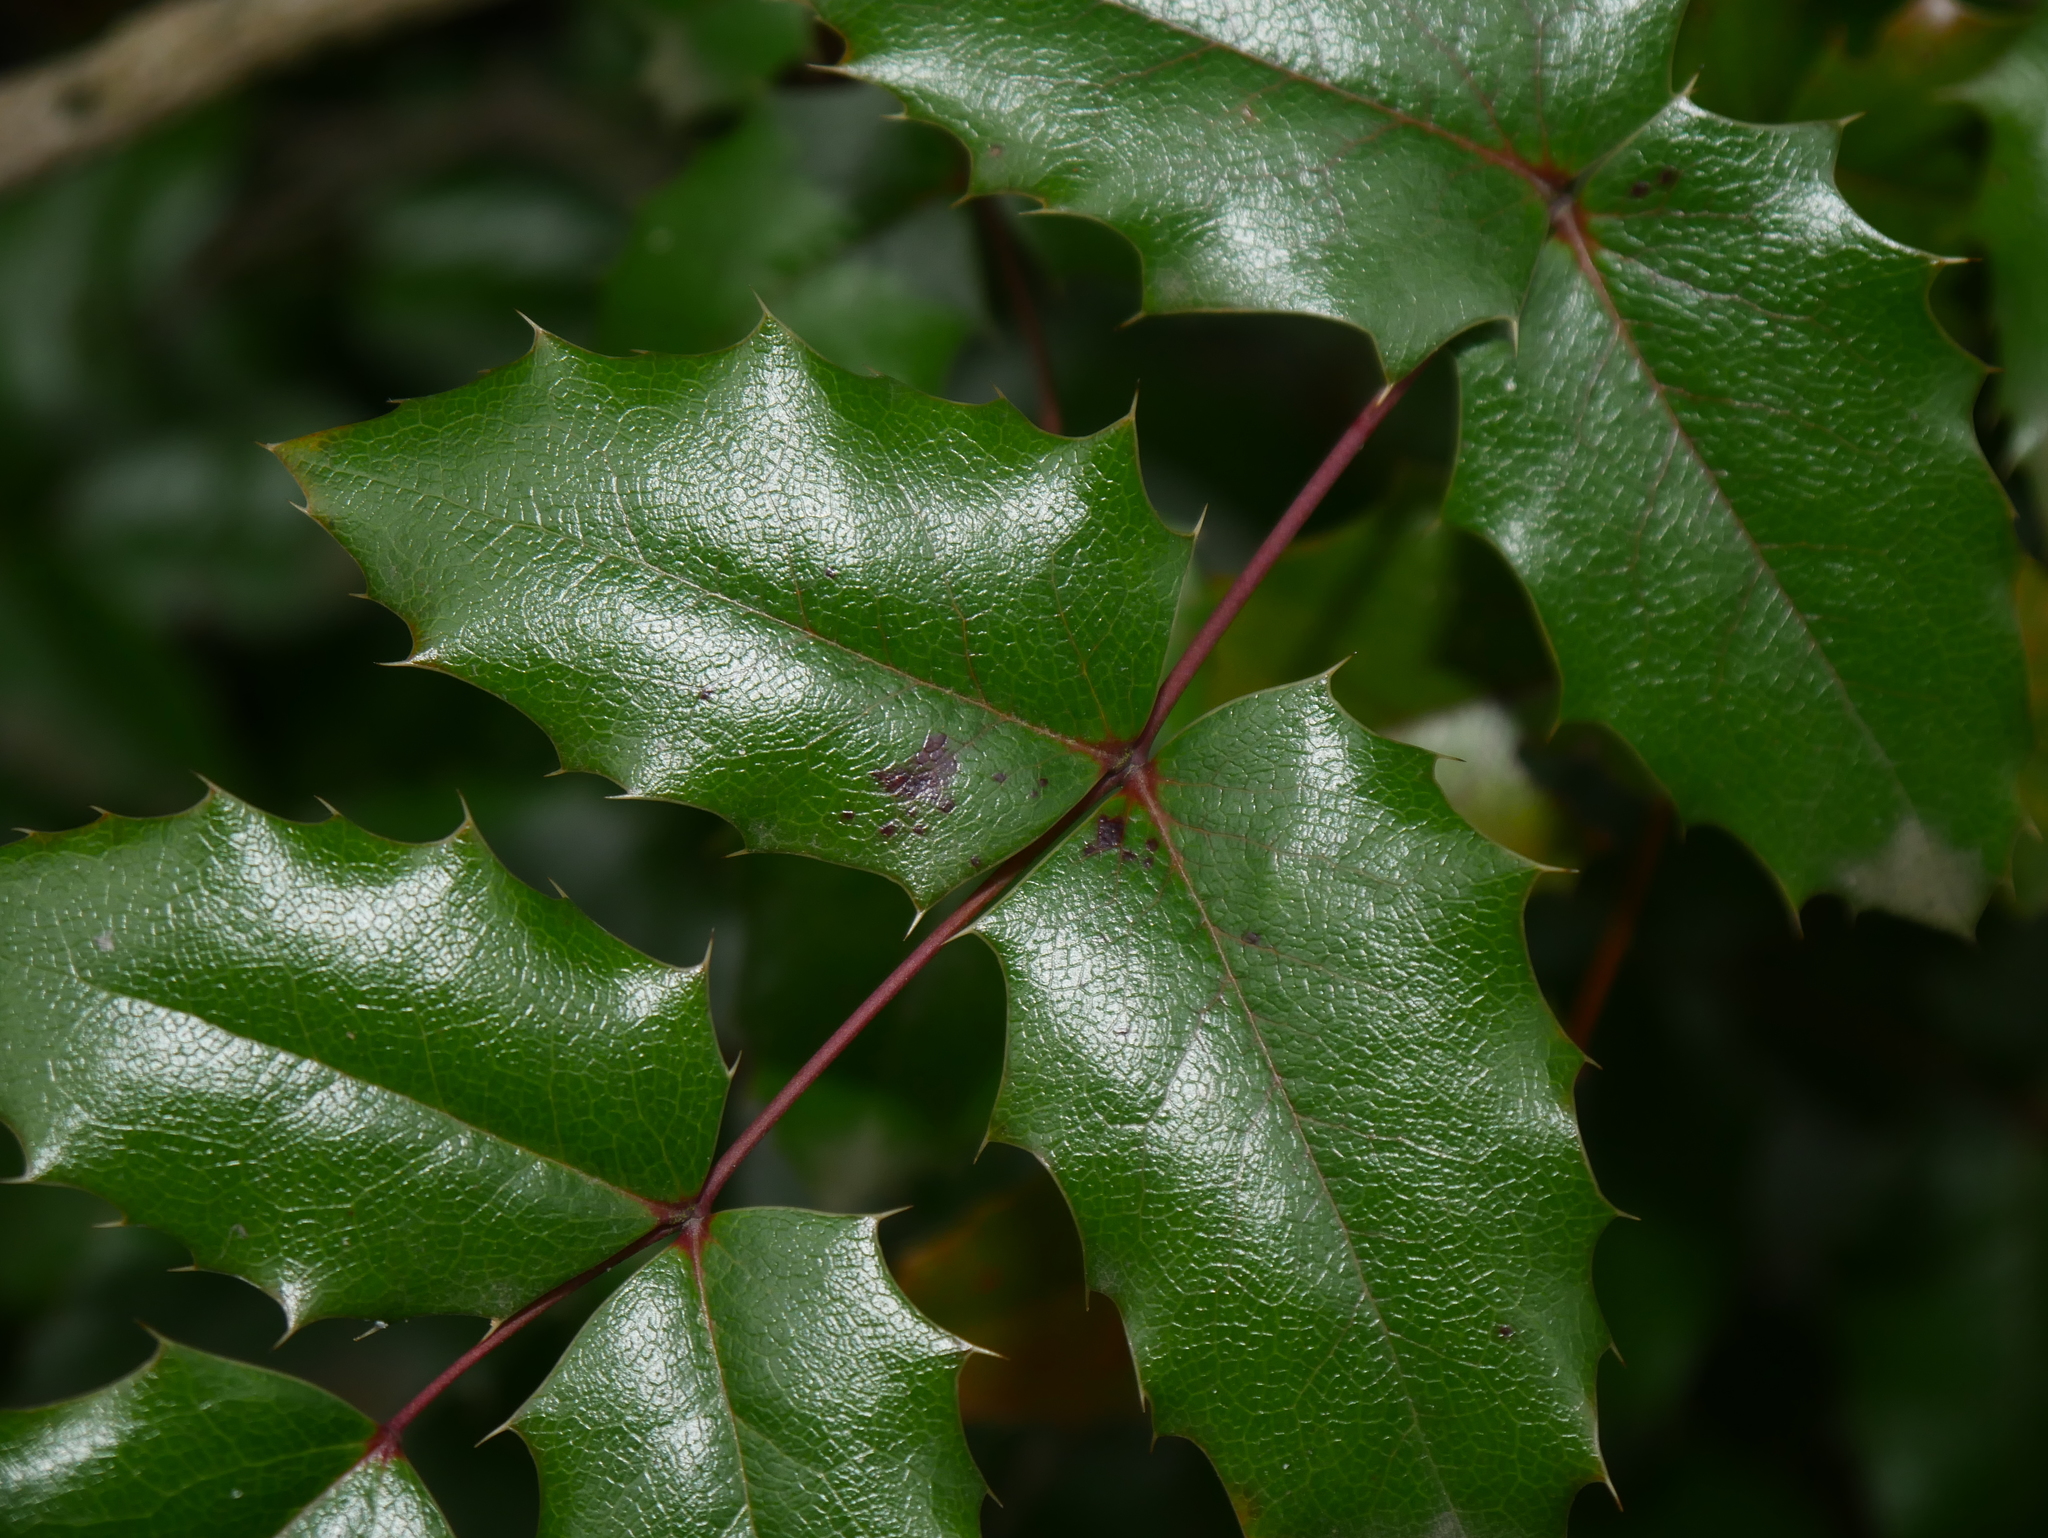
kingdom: Fungi
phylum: Basidiomycota
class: Pucciniomycetes
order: Pucciniales
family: Pucciniaceae
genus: Cumminsiella
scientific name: Cumminsiella mirabilissima
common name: Mahonia rust
